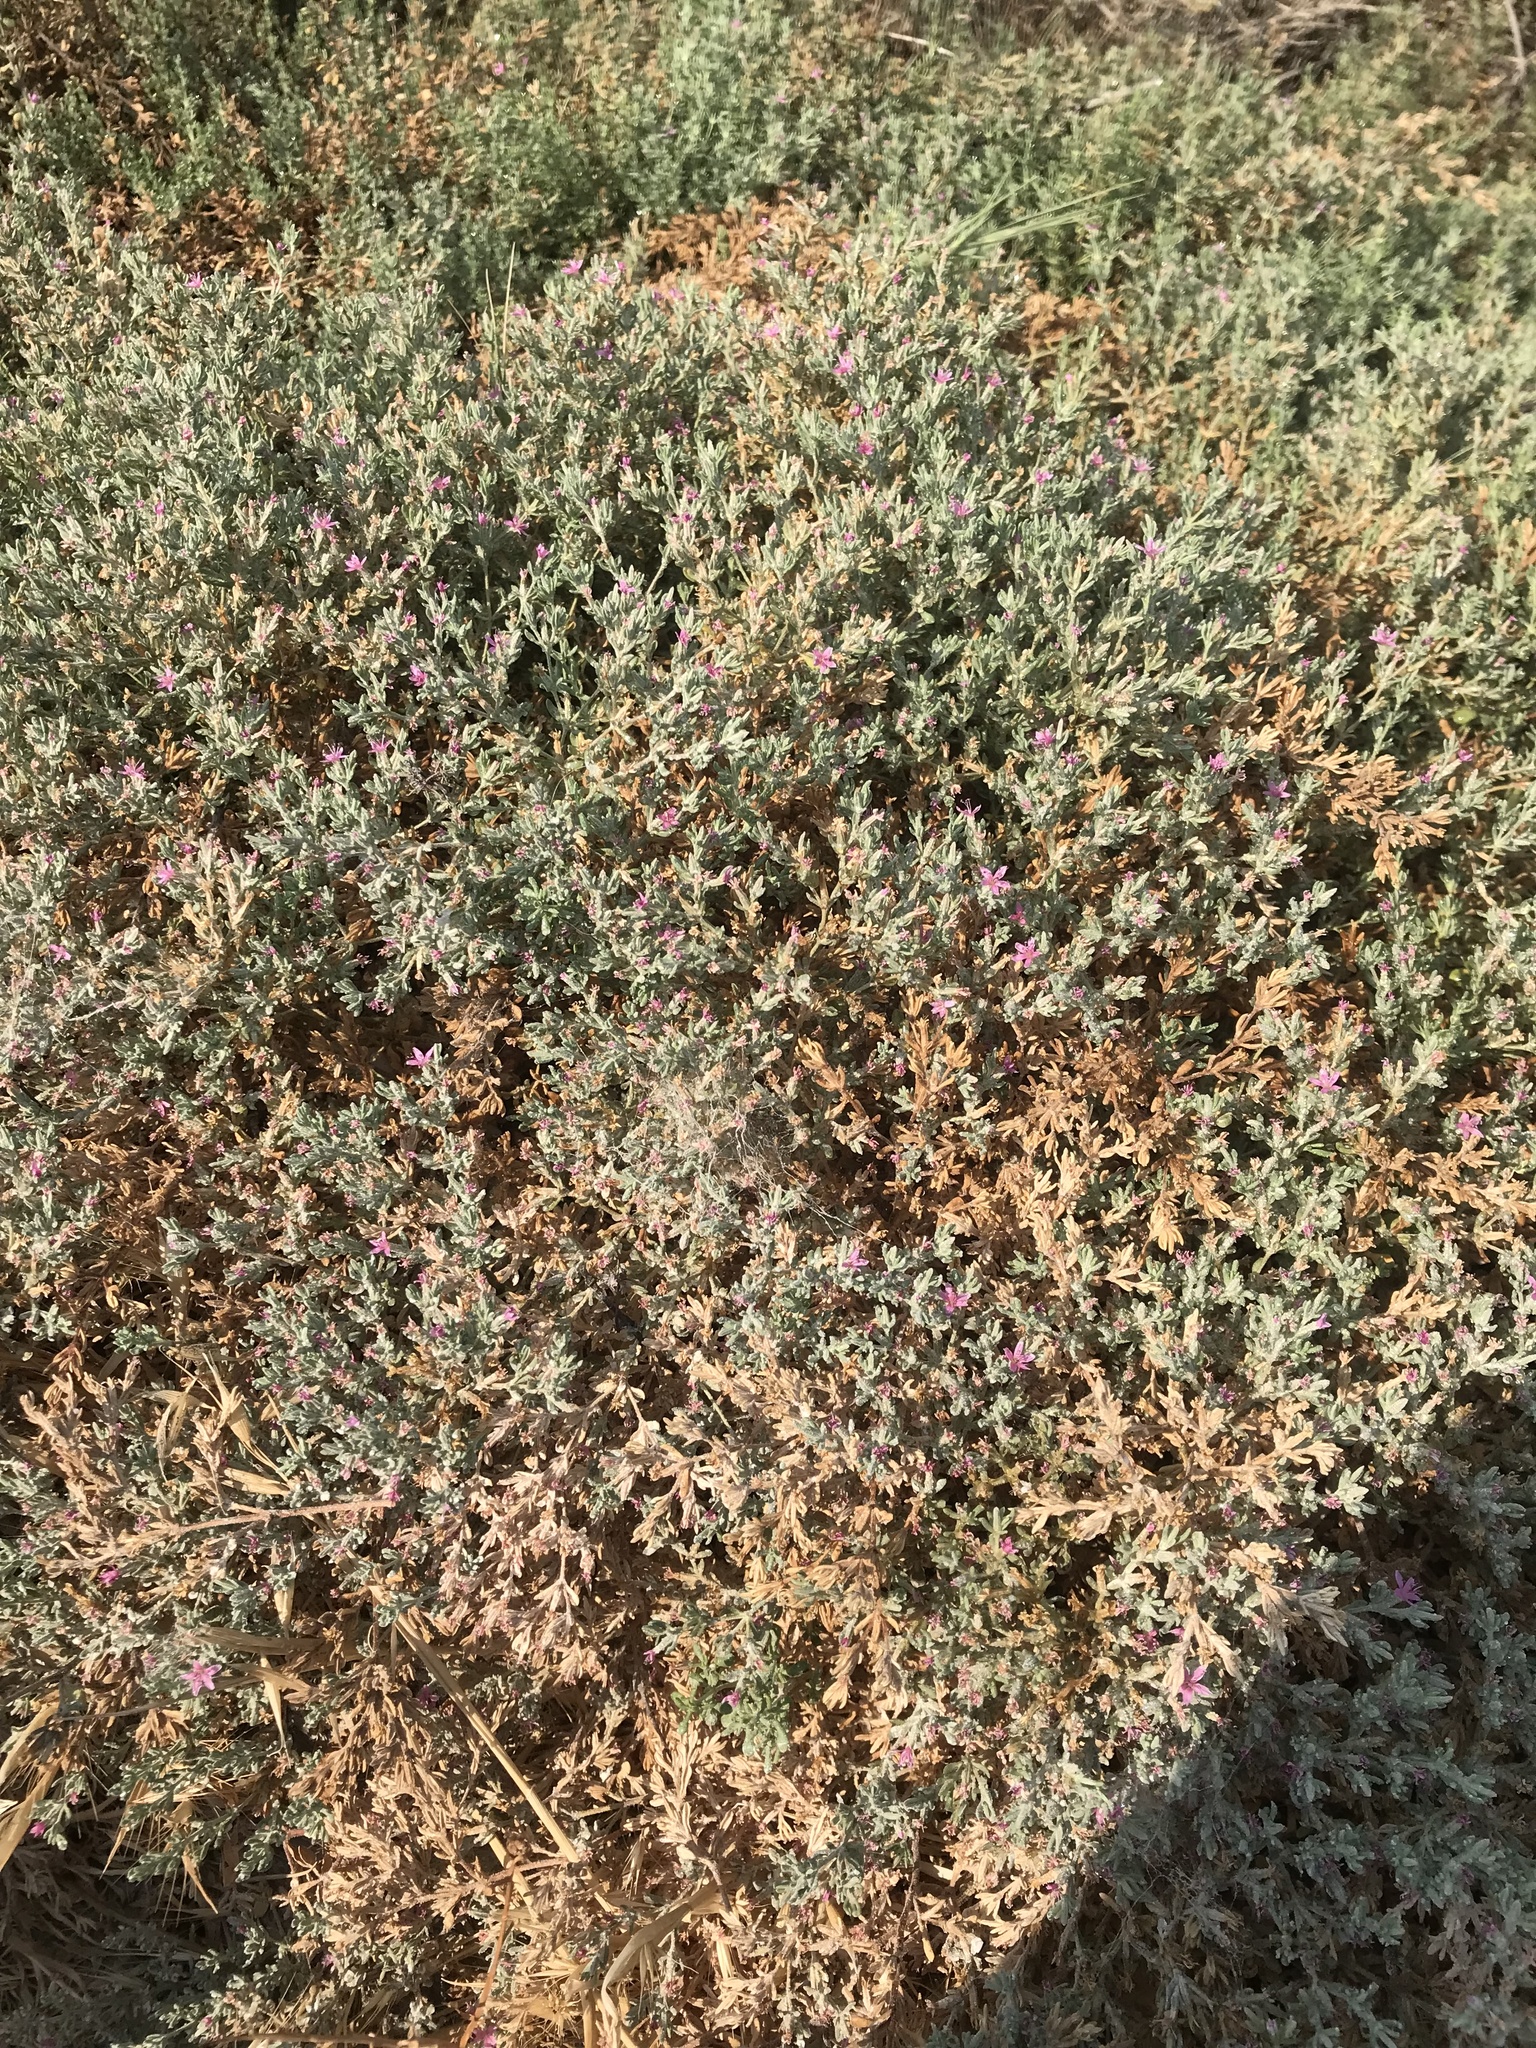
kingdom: Plantae
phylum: Tracheophyta
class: Magnoliopsida
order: Caryophyllales
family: Frankeniaceae
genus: Frankenia
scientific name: Frankenia salina
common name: Alkali seaheath
